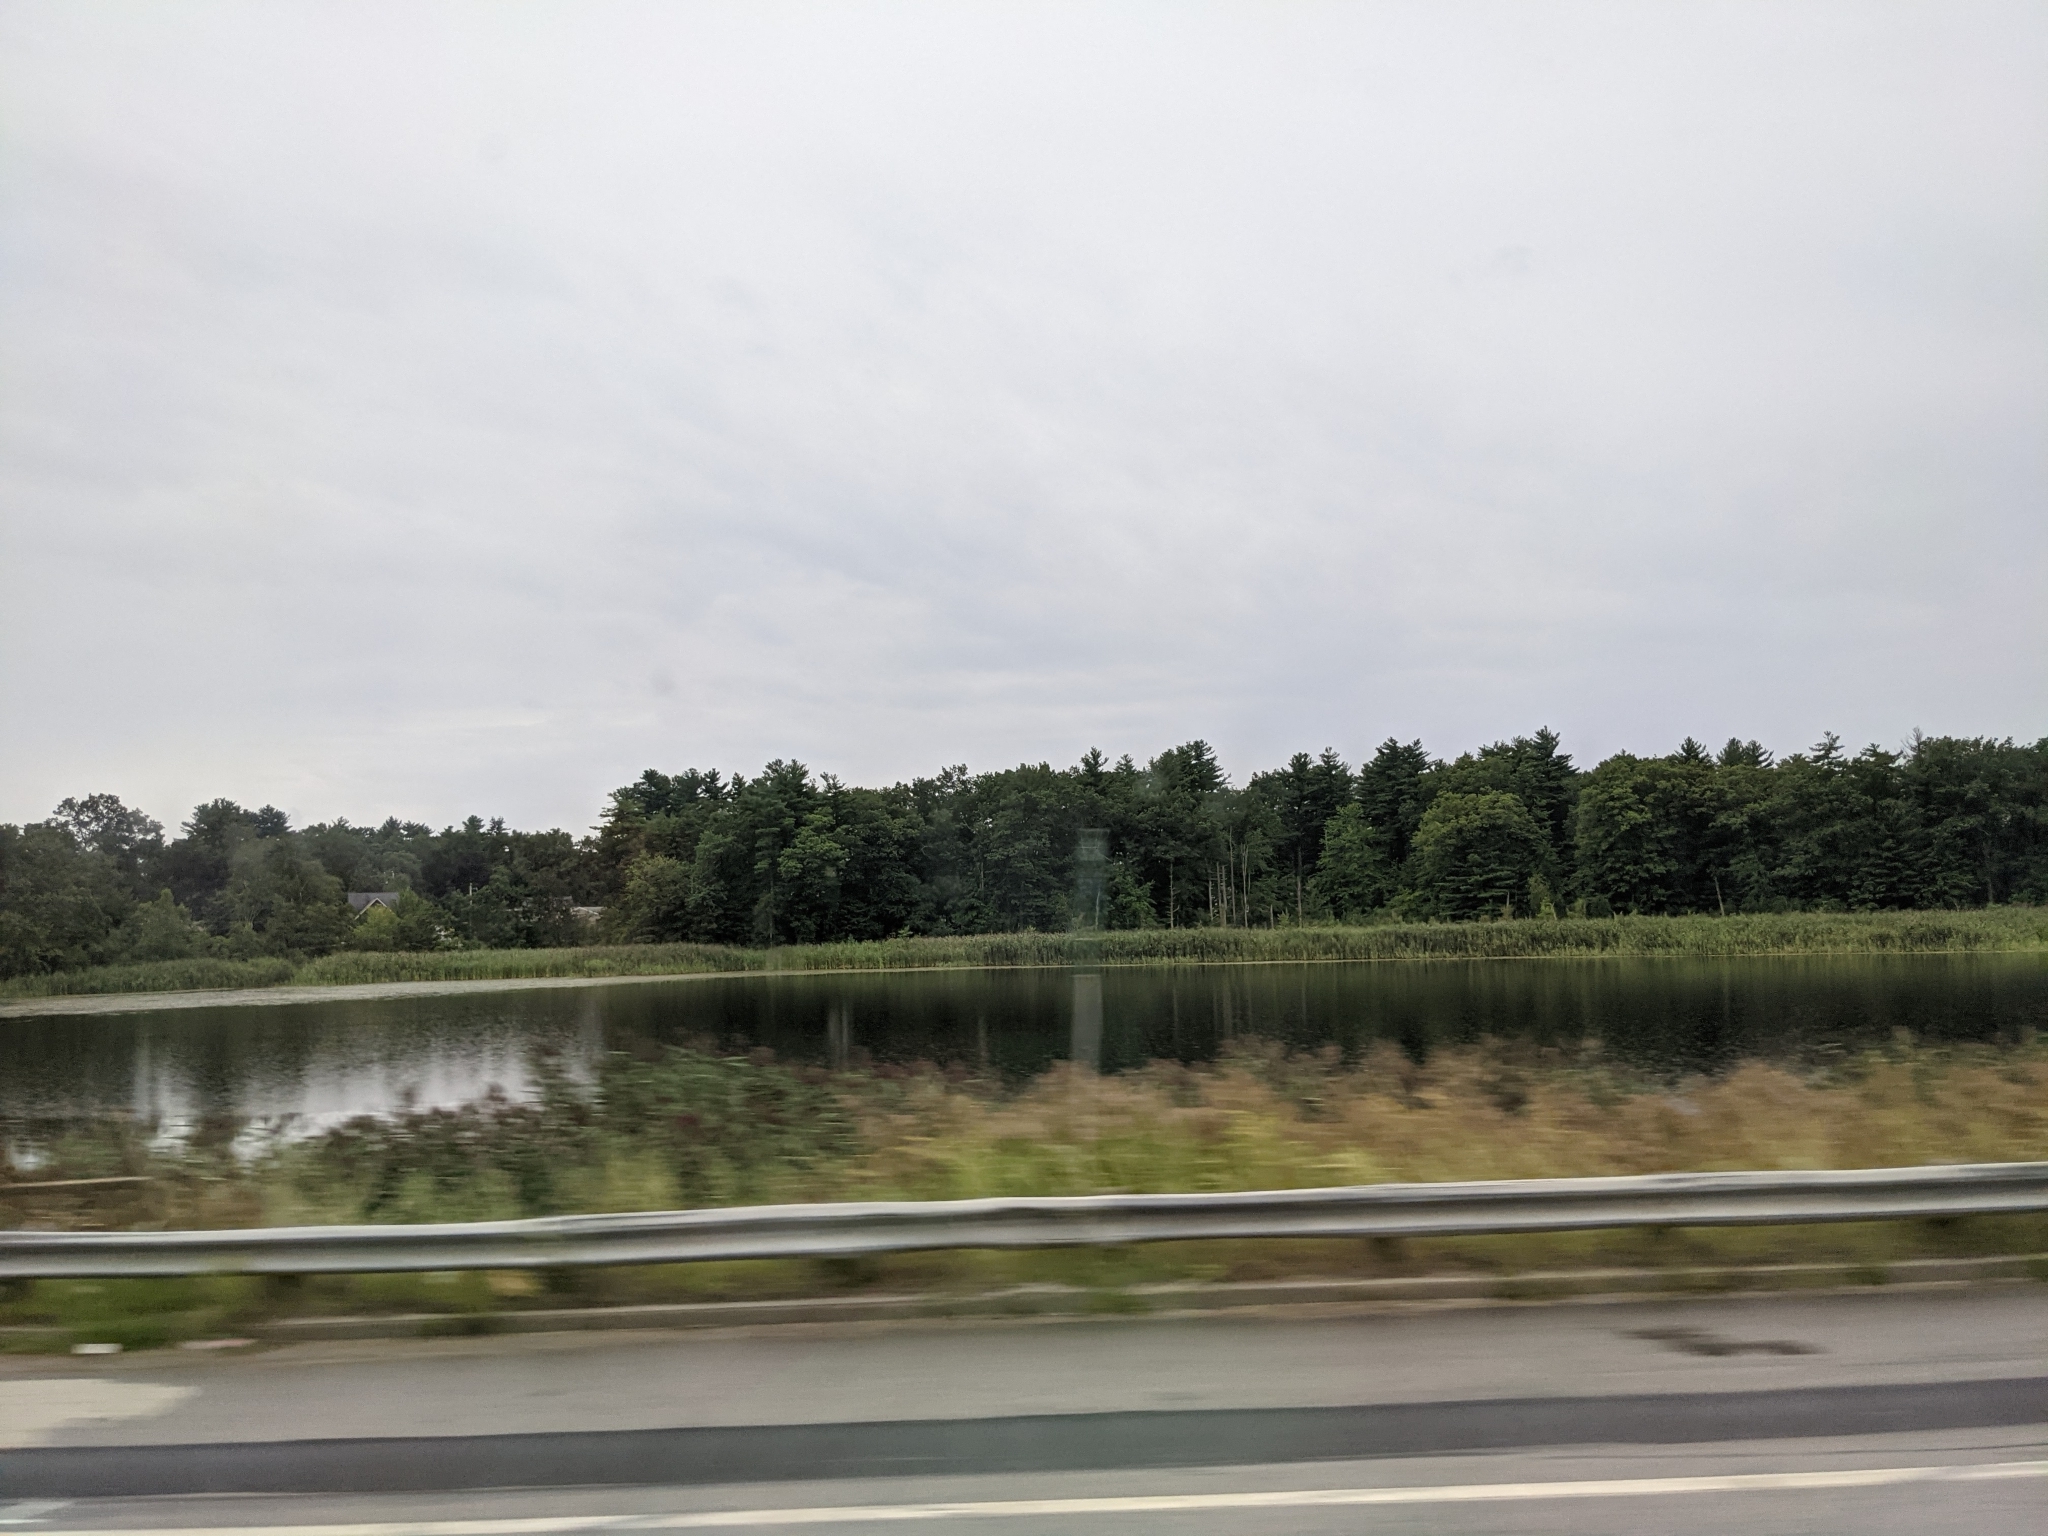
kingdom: Plantae
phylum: Tracheophyta
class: Pinopsida
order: Pinales
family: Pinaceae
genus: Pinus
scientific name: Pinus strobus
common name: Weymouth pine
